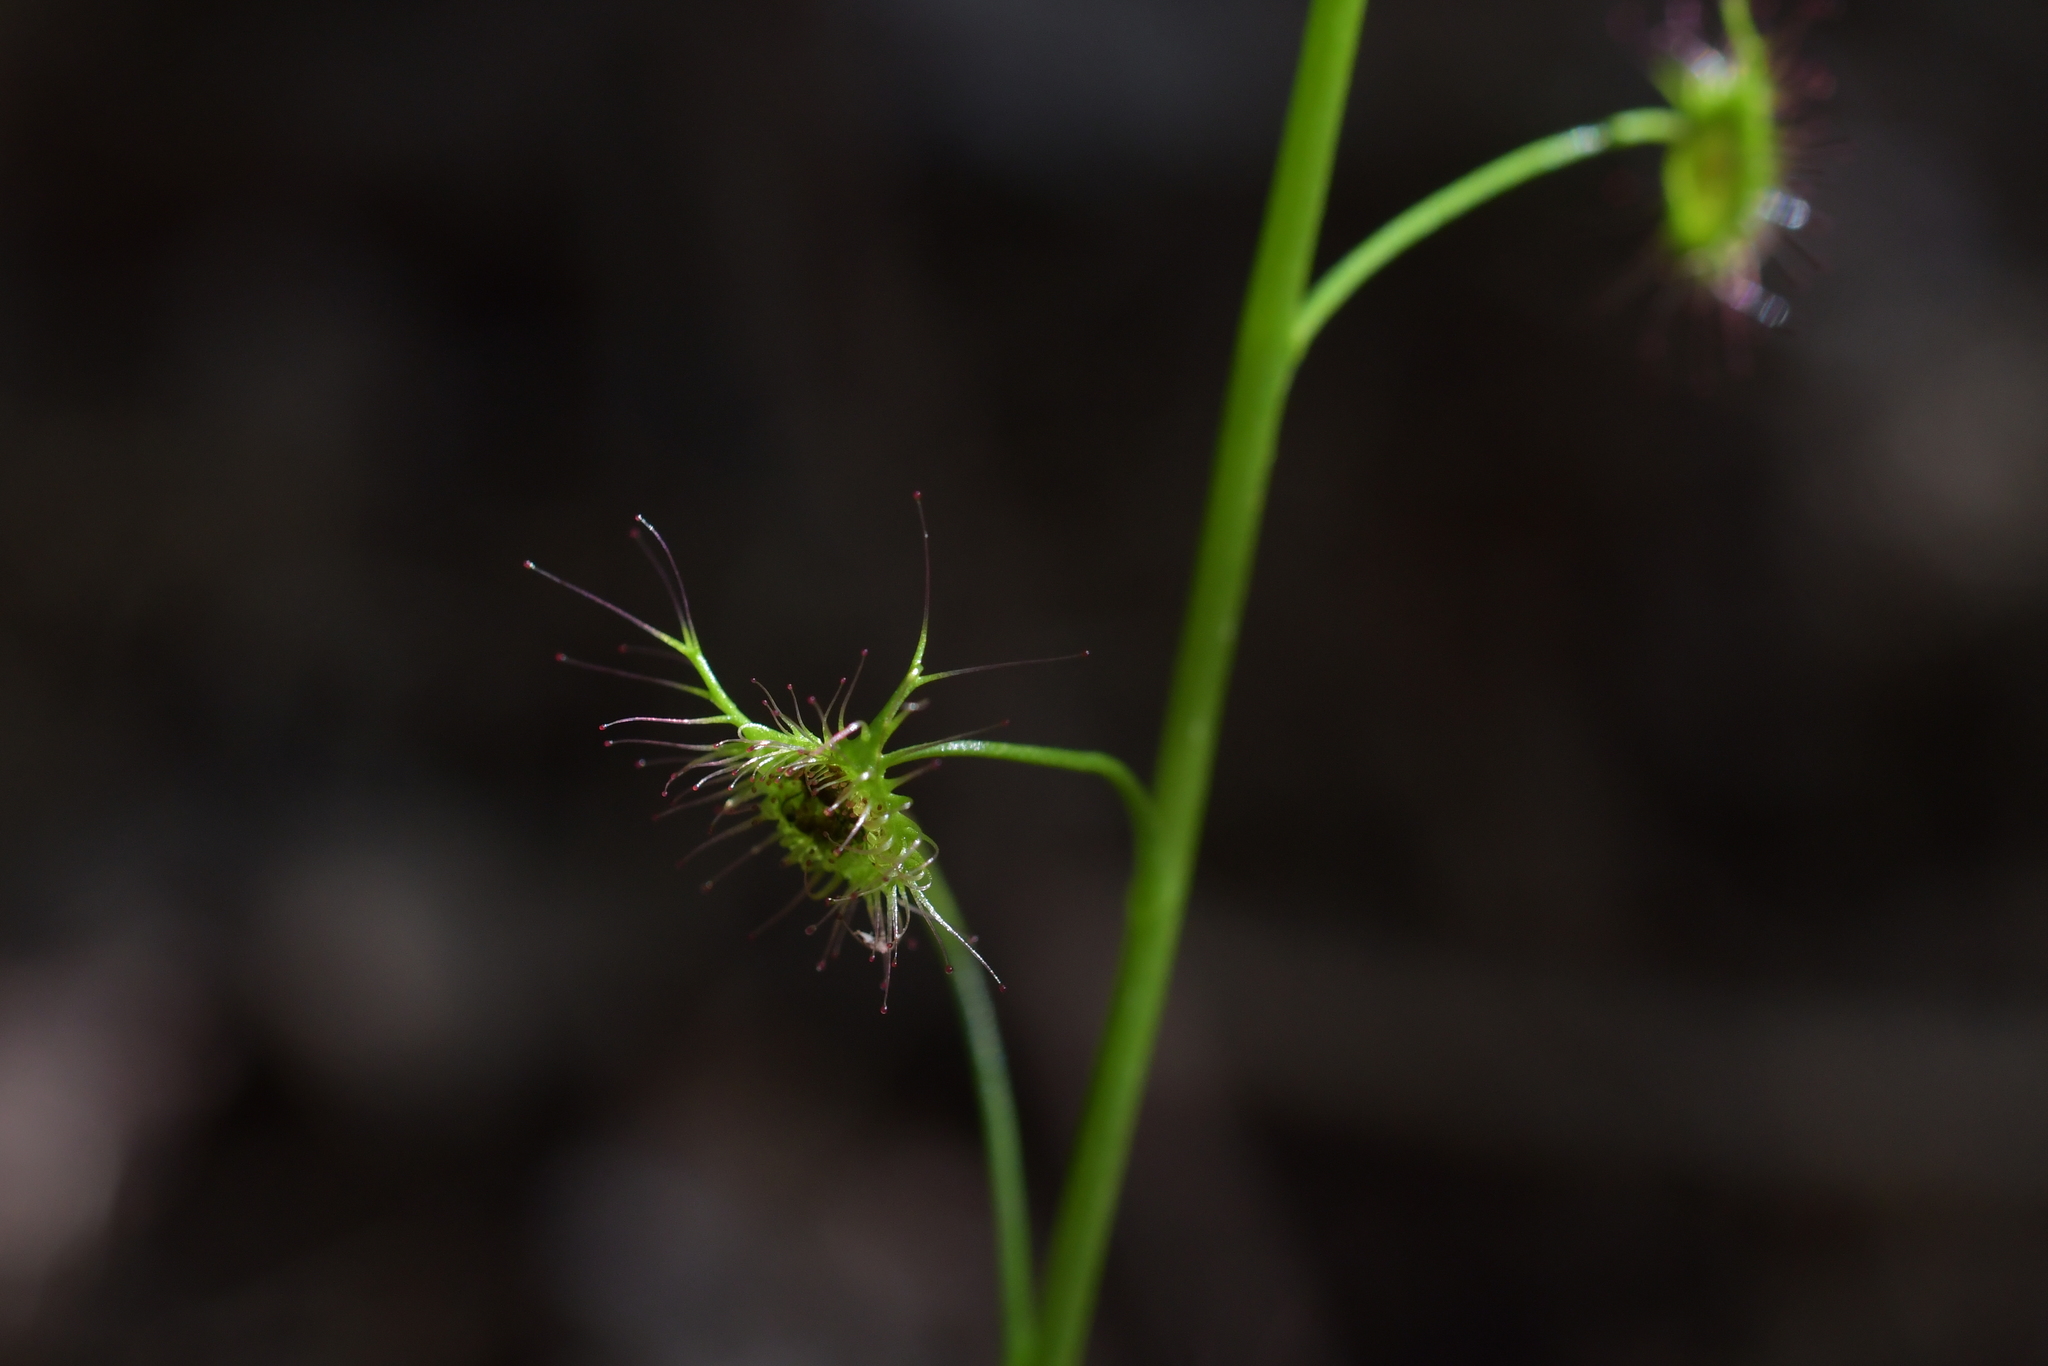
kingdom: Plantae
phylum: Tracheophyta
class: Magnoliopsida
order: Caryophyllales
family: Droseraceae
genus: Drosera
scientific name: Drosera peltata
